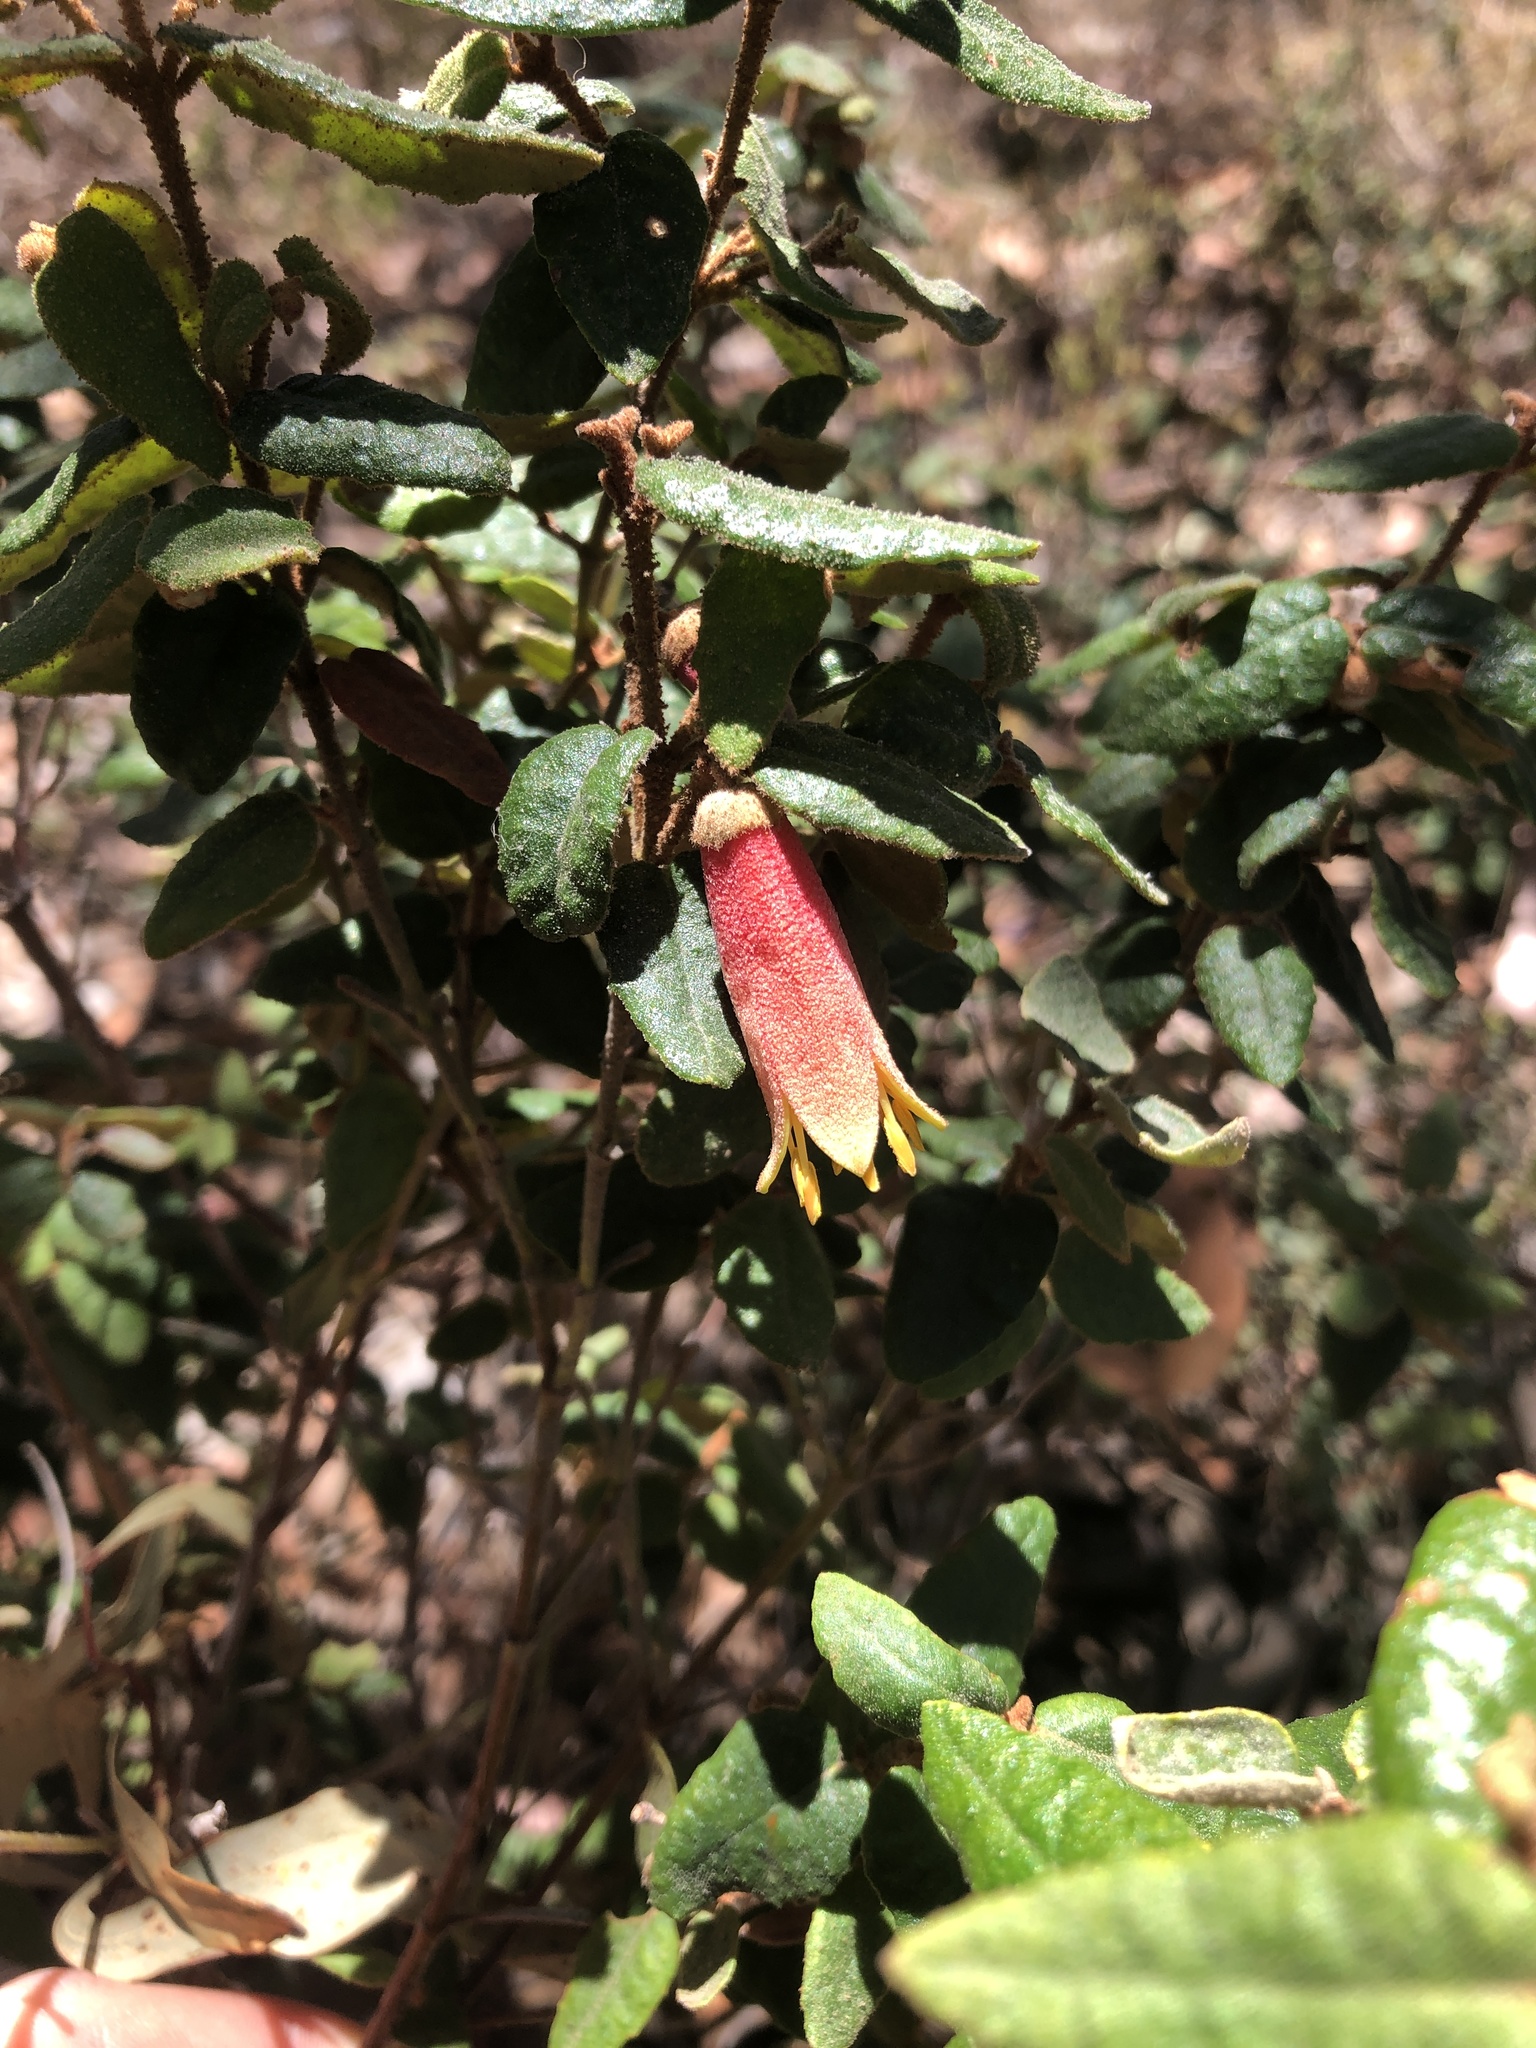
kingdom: Plantae
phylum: Tracheophyta
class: Magnoliopsida
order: Sapindales
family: Rutaceae
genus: Correa
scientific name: Correa reflexa
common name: Common correa
